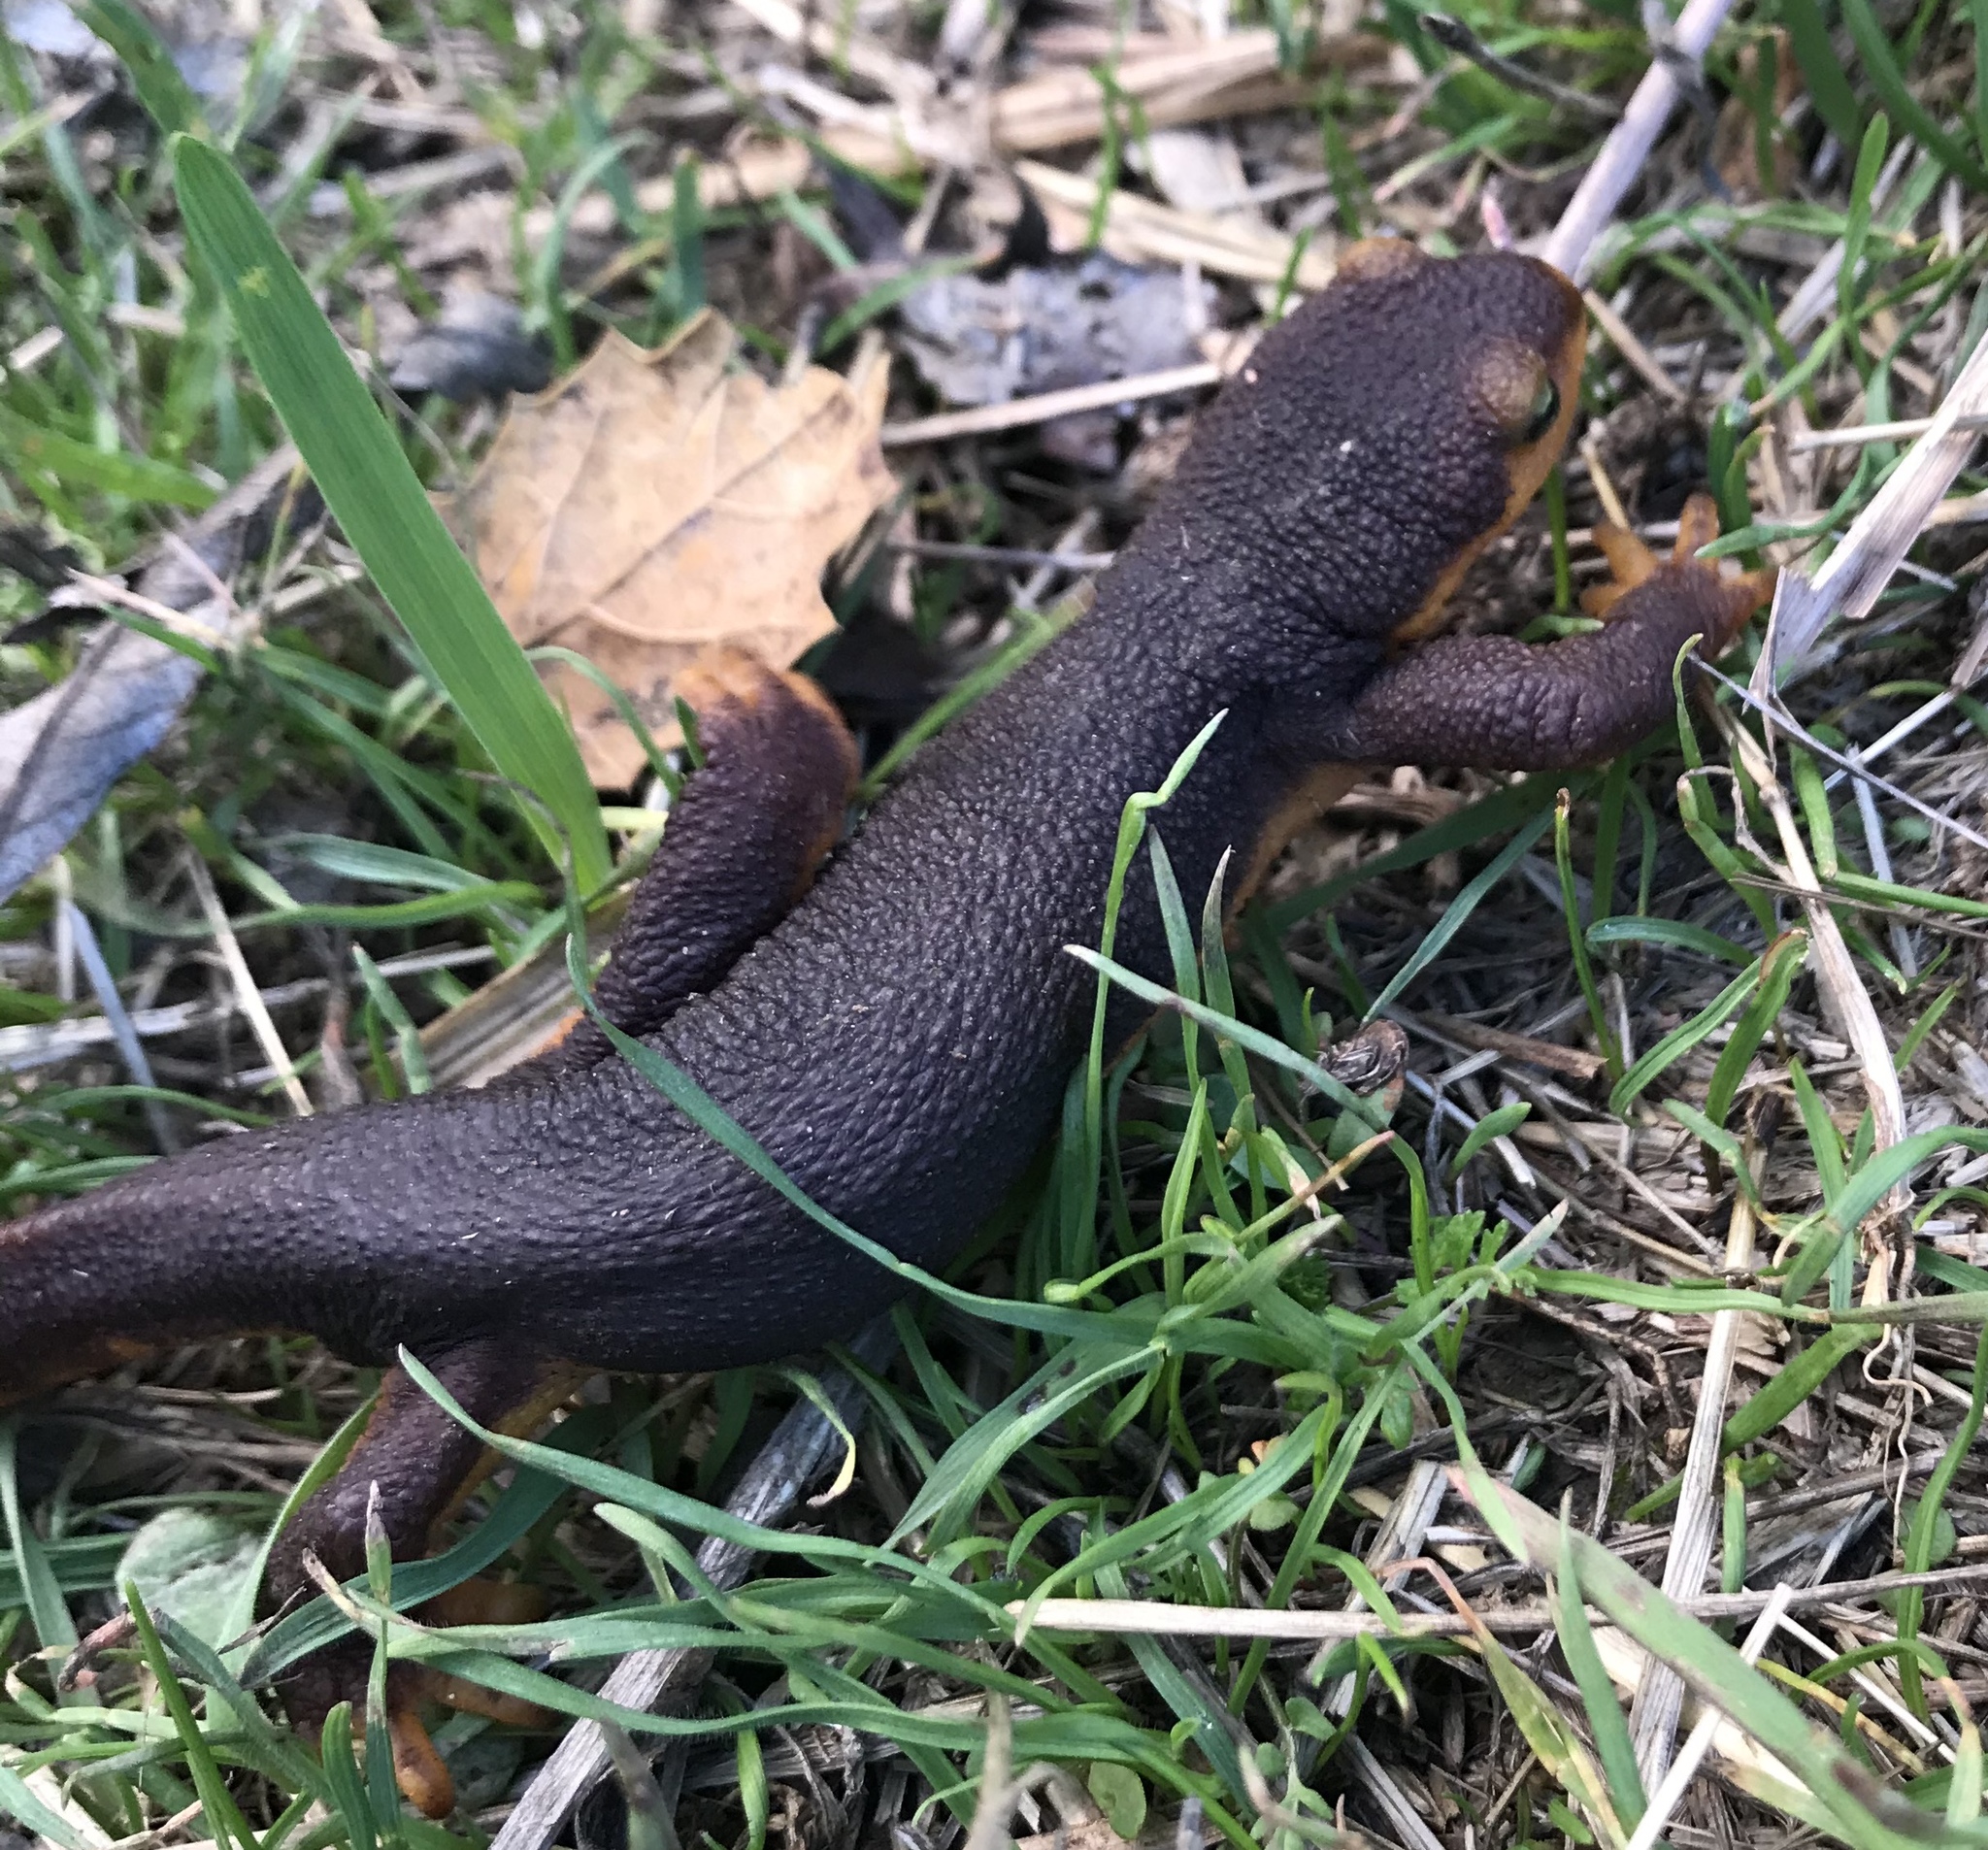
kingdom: Animalia
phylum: Chordata
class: Amphibia
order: Caudata
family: Salamandridae
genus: Taricha
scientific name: Taricha torosa
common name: California newt
